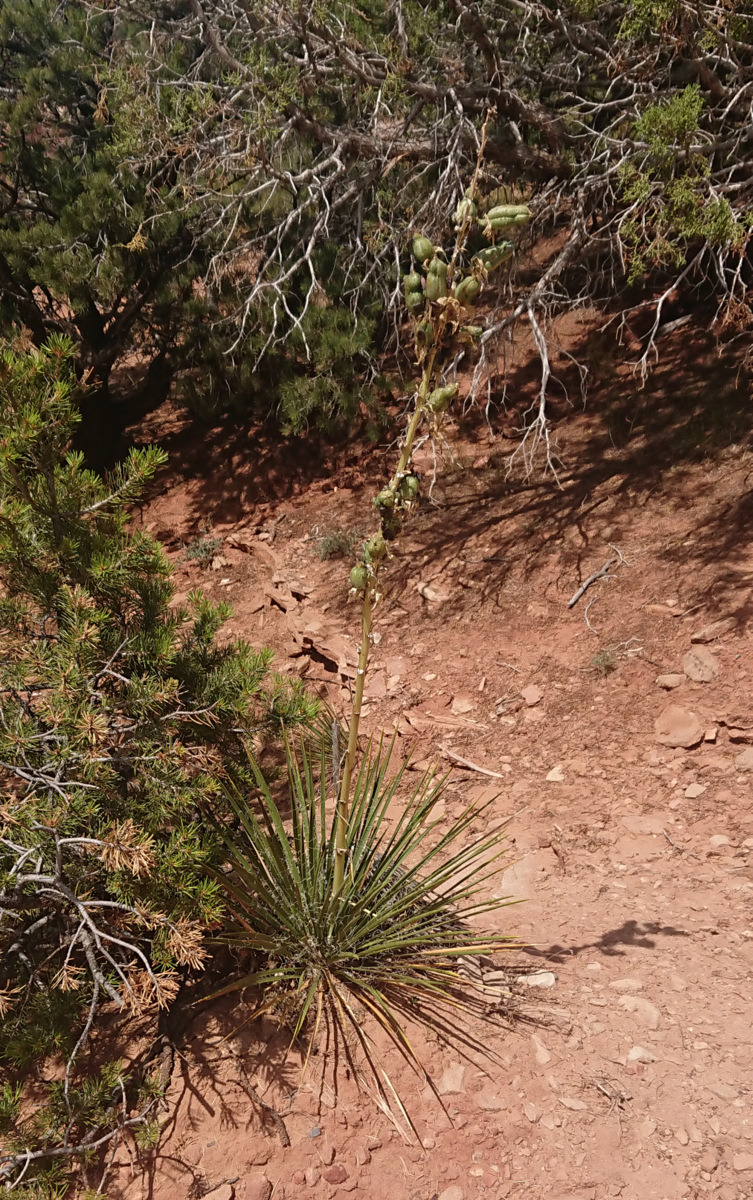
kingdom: Plantae
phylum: Tracheophyta
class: Liliopsida
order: Asparagales
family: Asparagaceae
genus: Yucca
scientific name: Yucca angustissima
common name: Narrowleaf yucca
